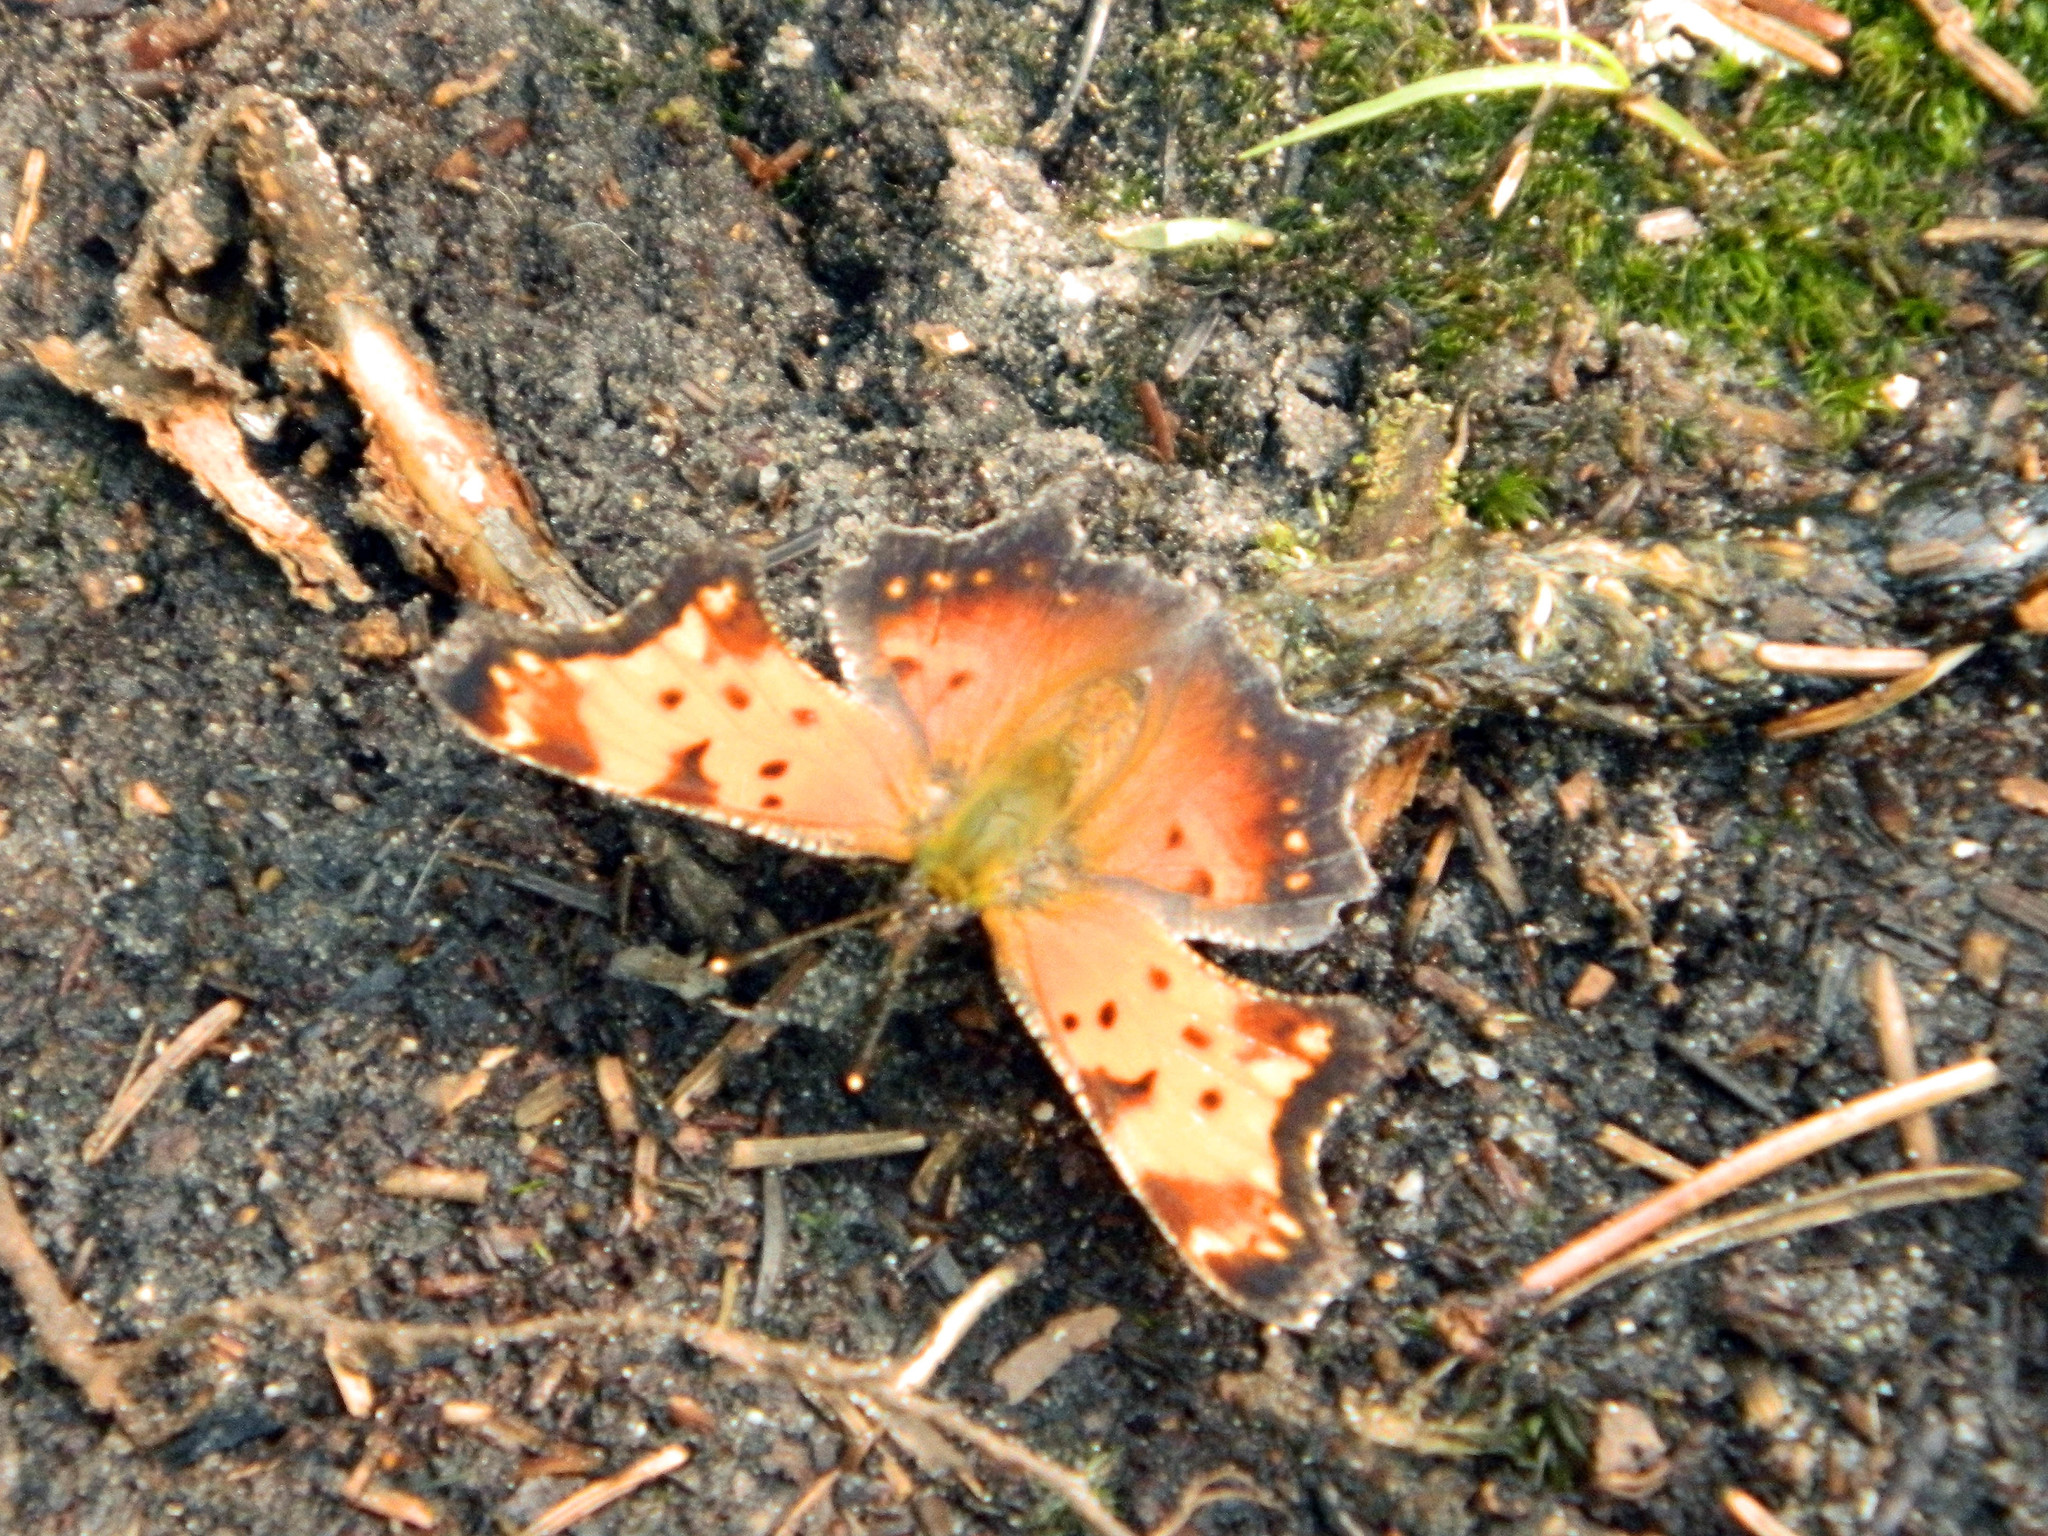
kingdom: Animalia
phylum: Arthropoda
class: Insecta
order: Lepidoptera
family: Nymphalidae
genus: Polygonia
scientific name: Polygonia progne
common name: Gray comma
